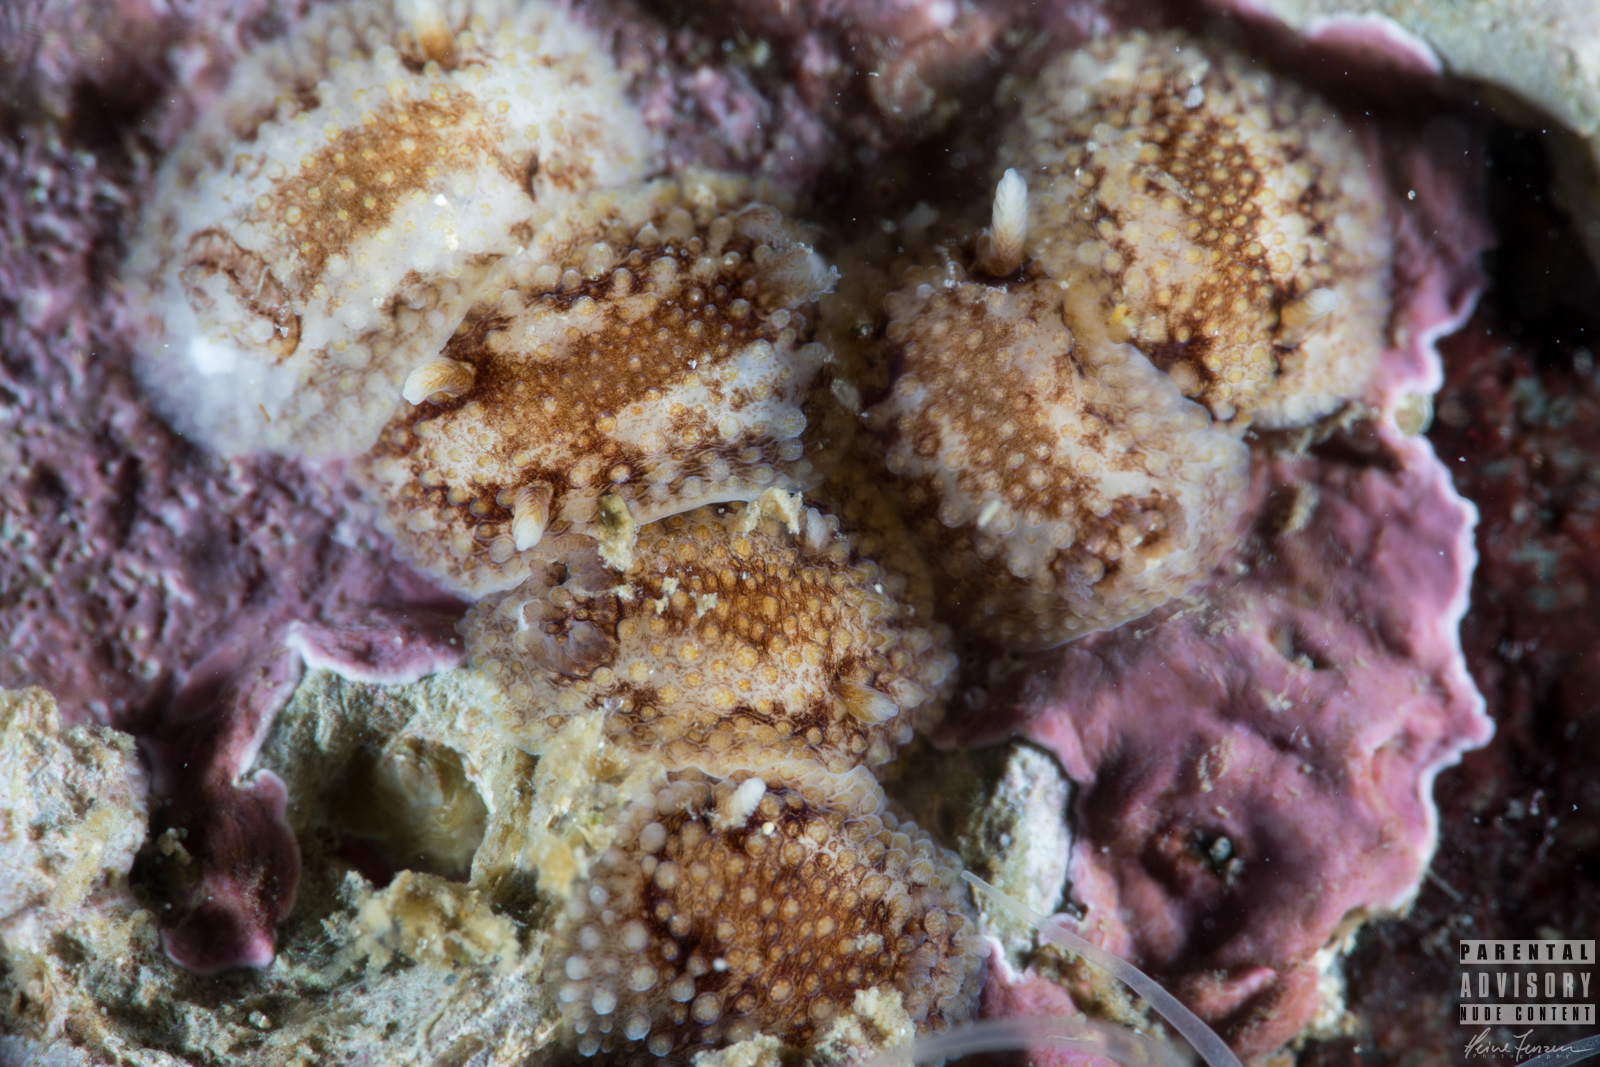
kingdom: Animalia
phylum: Mollusca
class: Gastropoda
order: Nudibranchia
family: Onchidorididae
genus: Onchidoris
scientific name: Onchidoris bilamellata
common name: Barnacle-eating onchidoris
